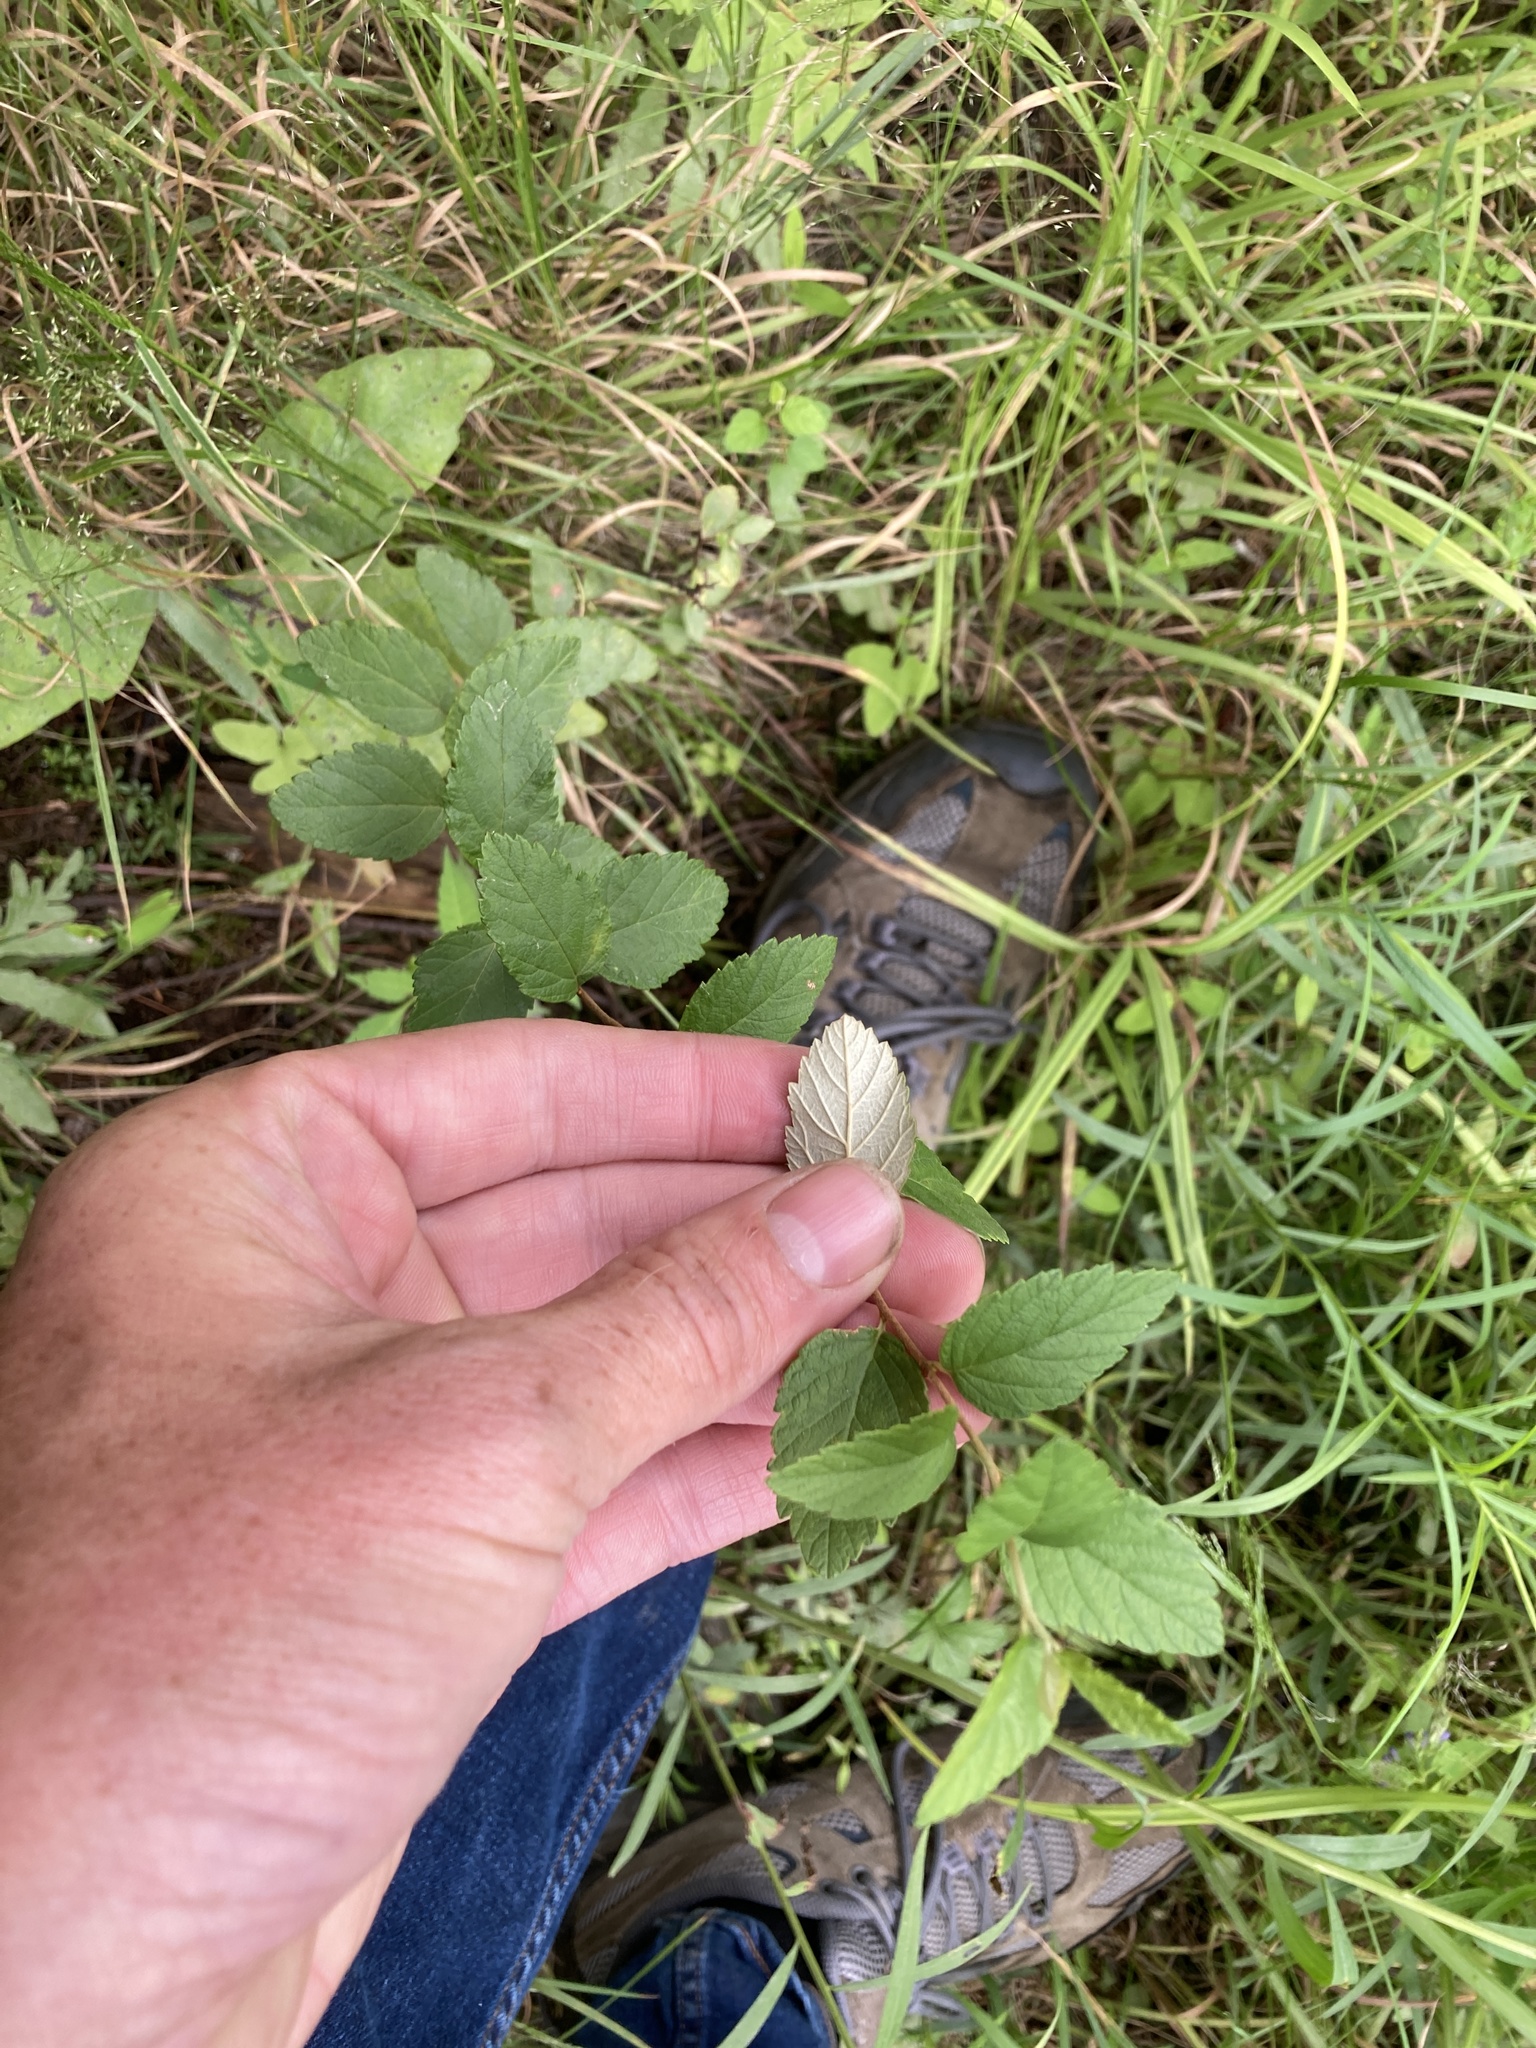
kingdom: Plantae
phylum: Tracheophyta
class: Magnoliopsida
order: Rosales
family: Rosaceae
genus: Spiraea
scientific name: Spiraea tomentosa
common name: Hardhack
